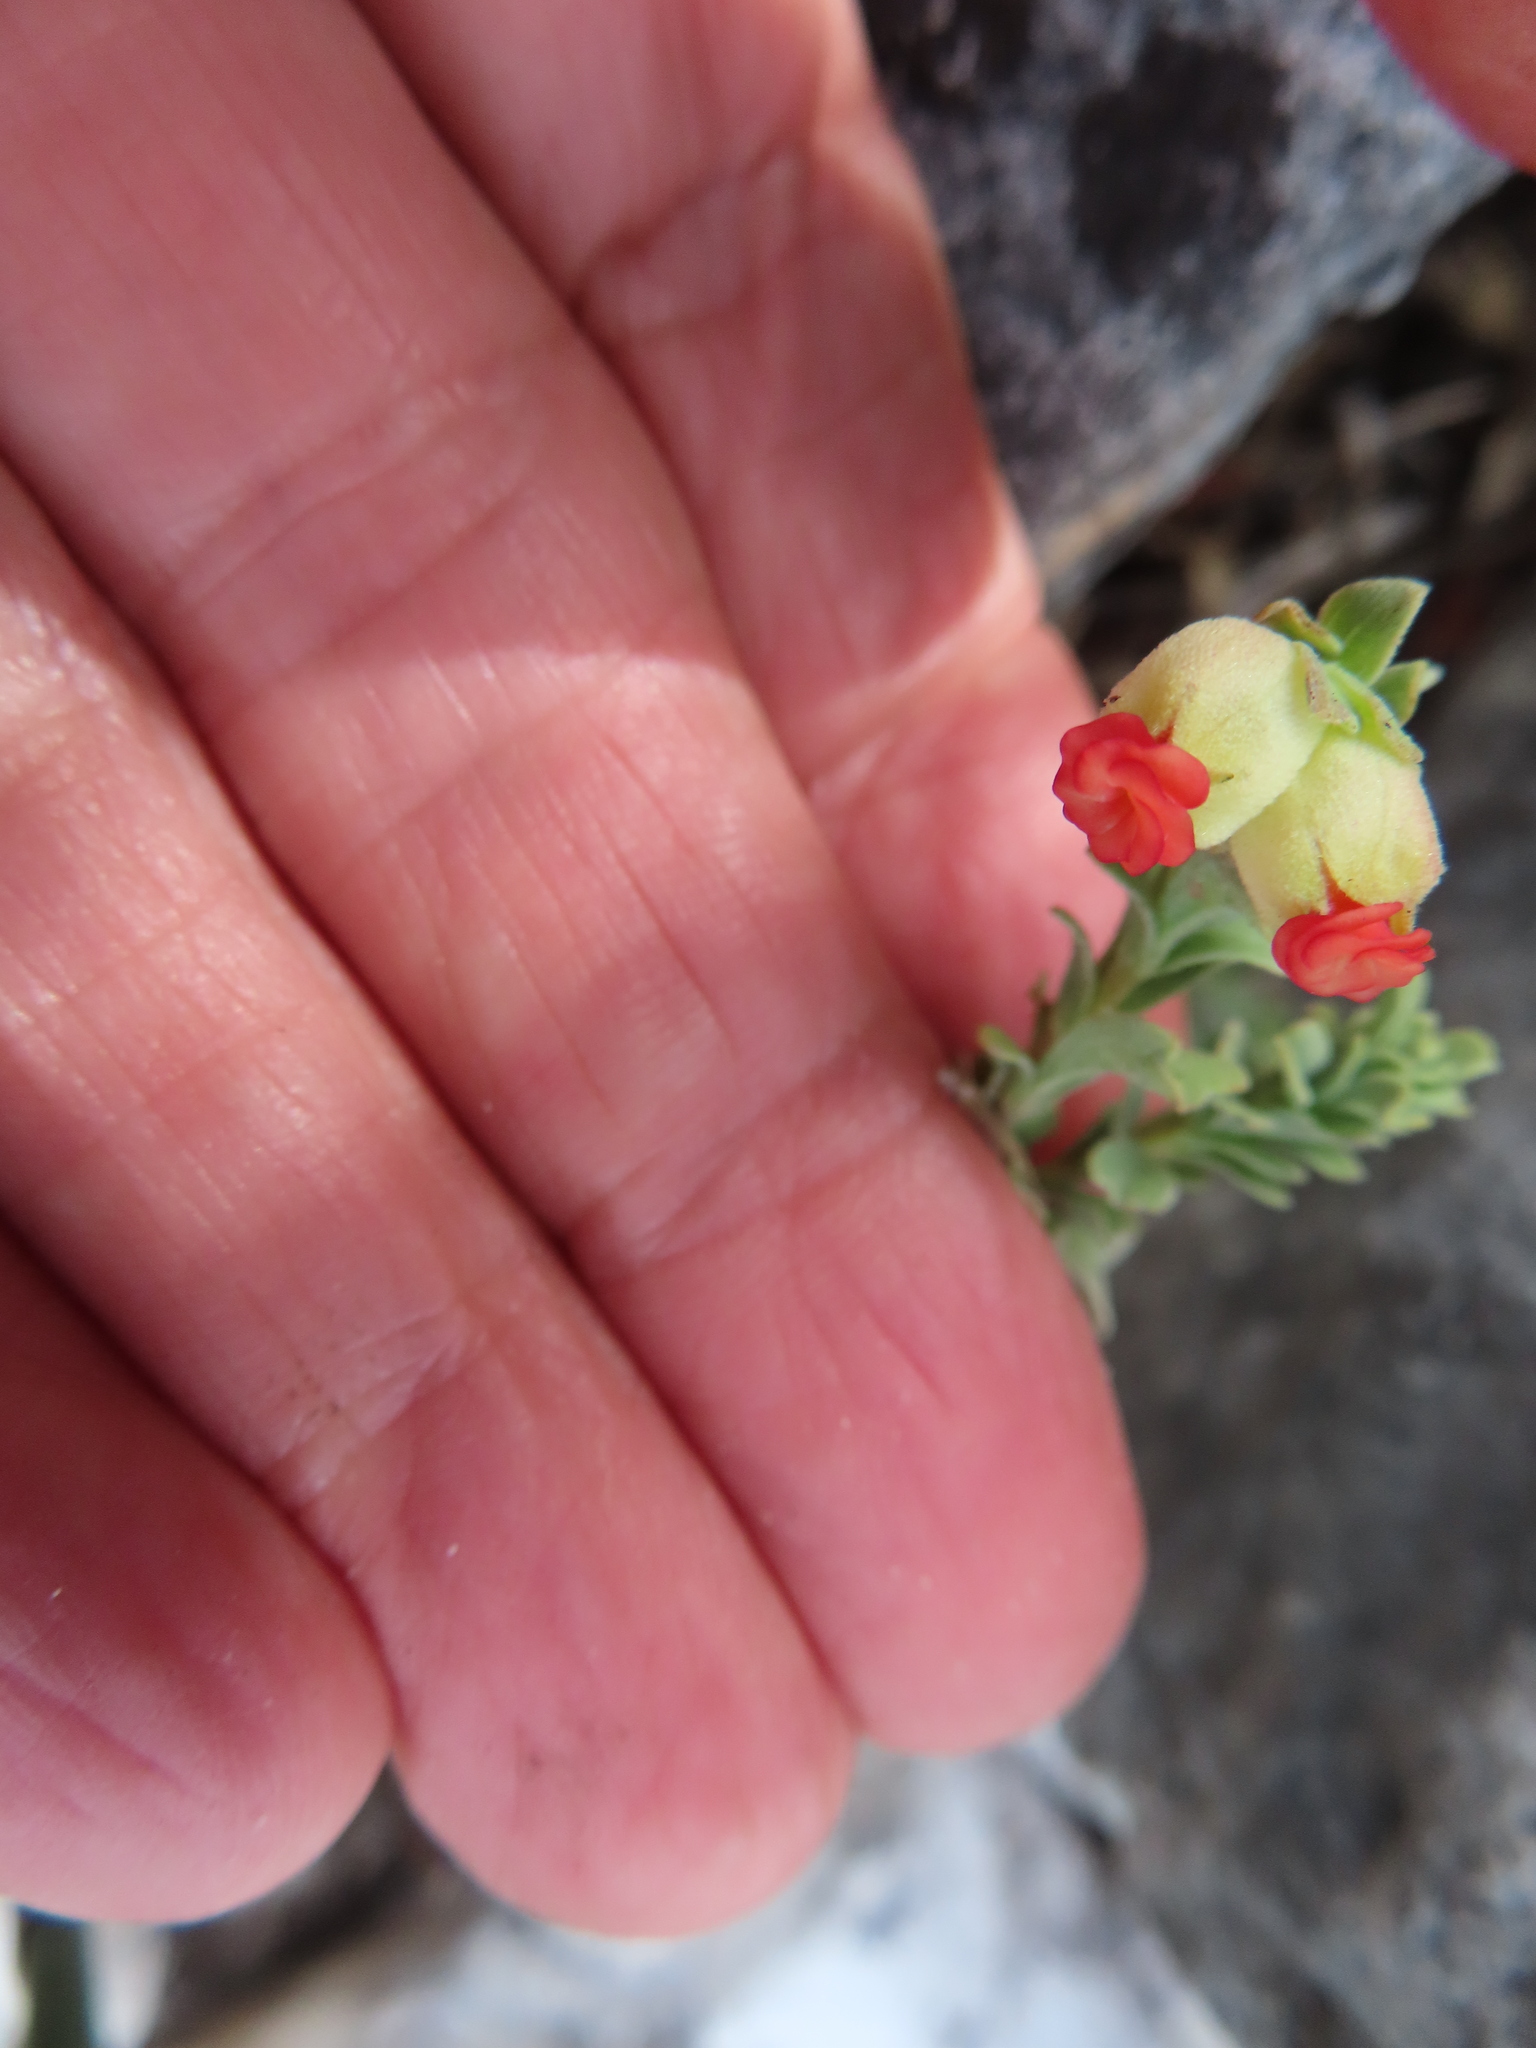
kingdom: Plantae
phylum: Tracheophyta
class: Magnoliopsida
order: Malvales
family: Malvaceae
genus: Hermannia
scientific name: Hermannia ternifolia
